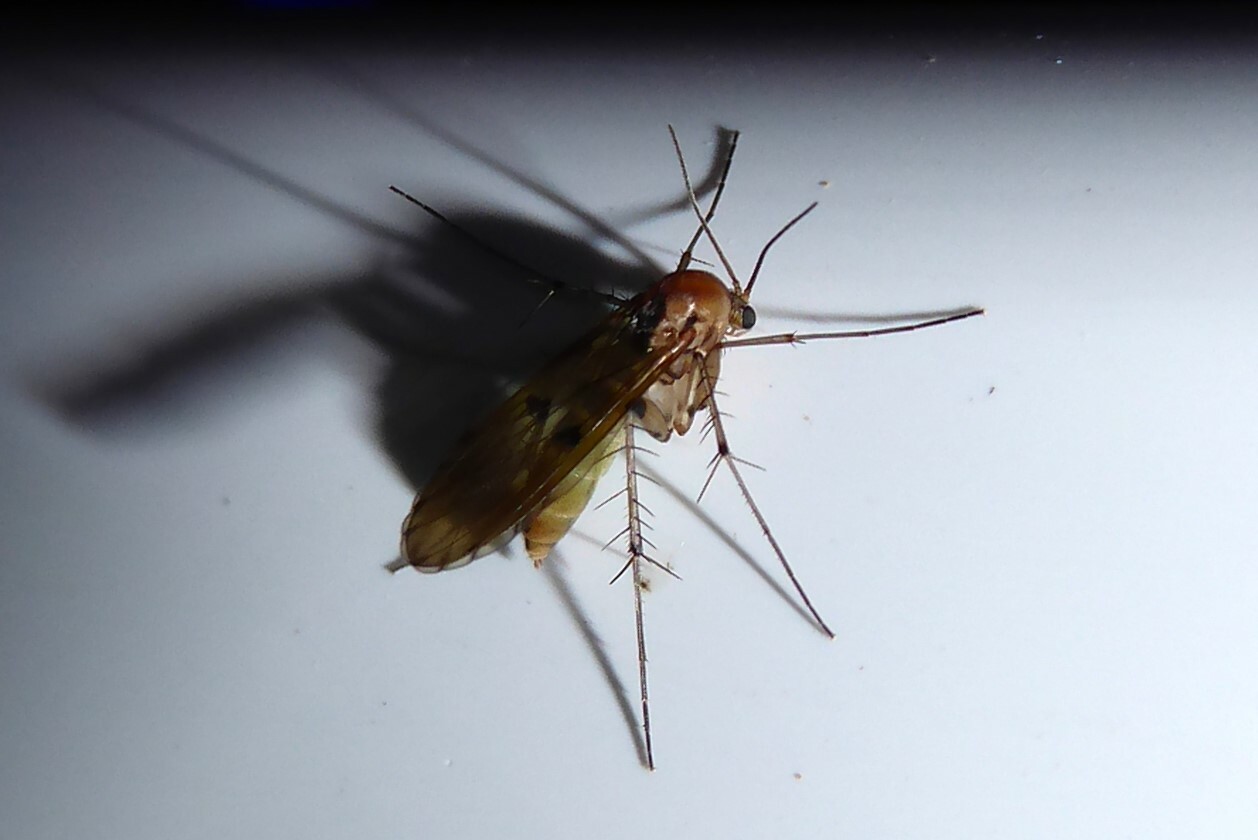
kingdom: Animalia
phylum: Arthropoda
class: Insecta
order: Diptera
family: Mycetophilidae
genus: Mycetophila
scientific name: Mycetophila marginepunctata
